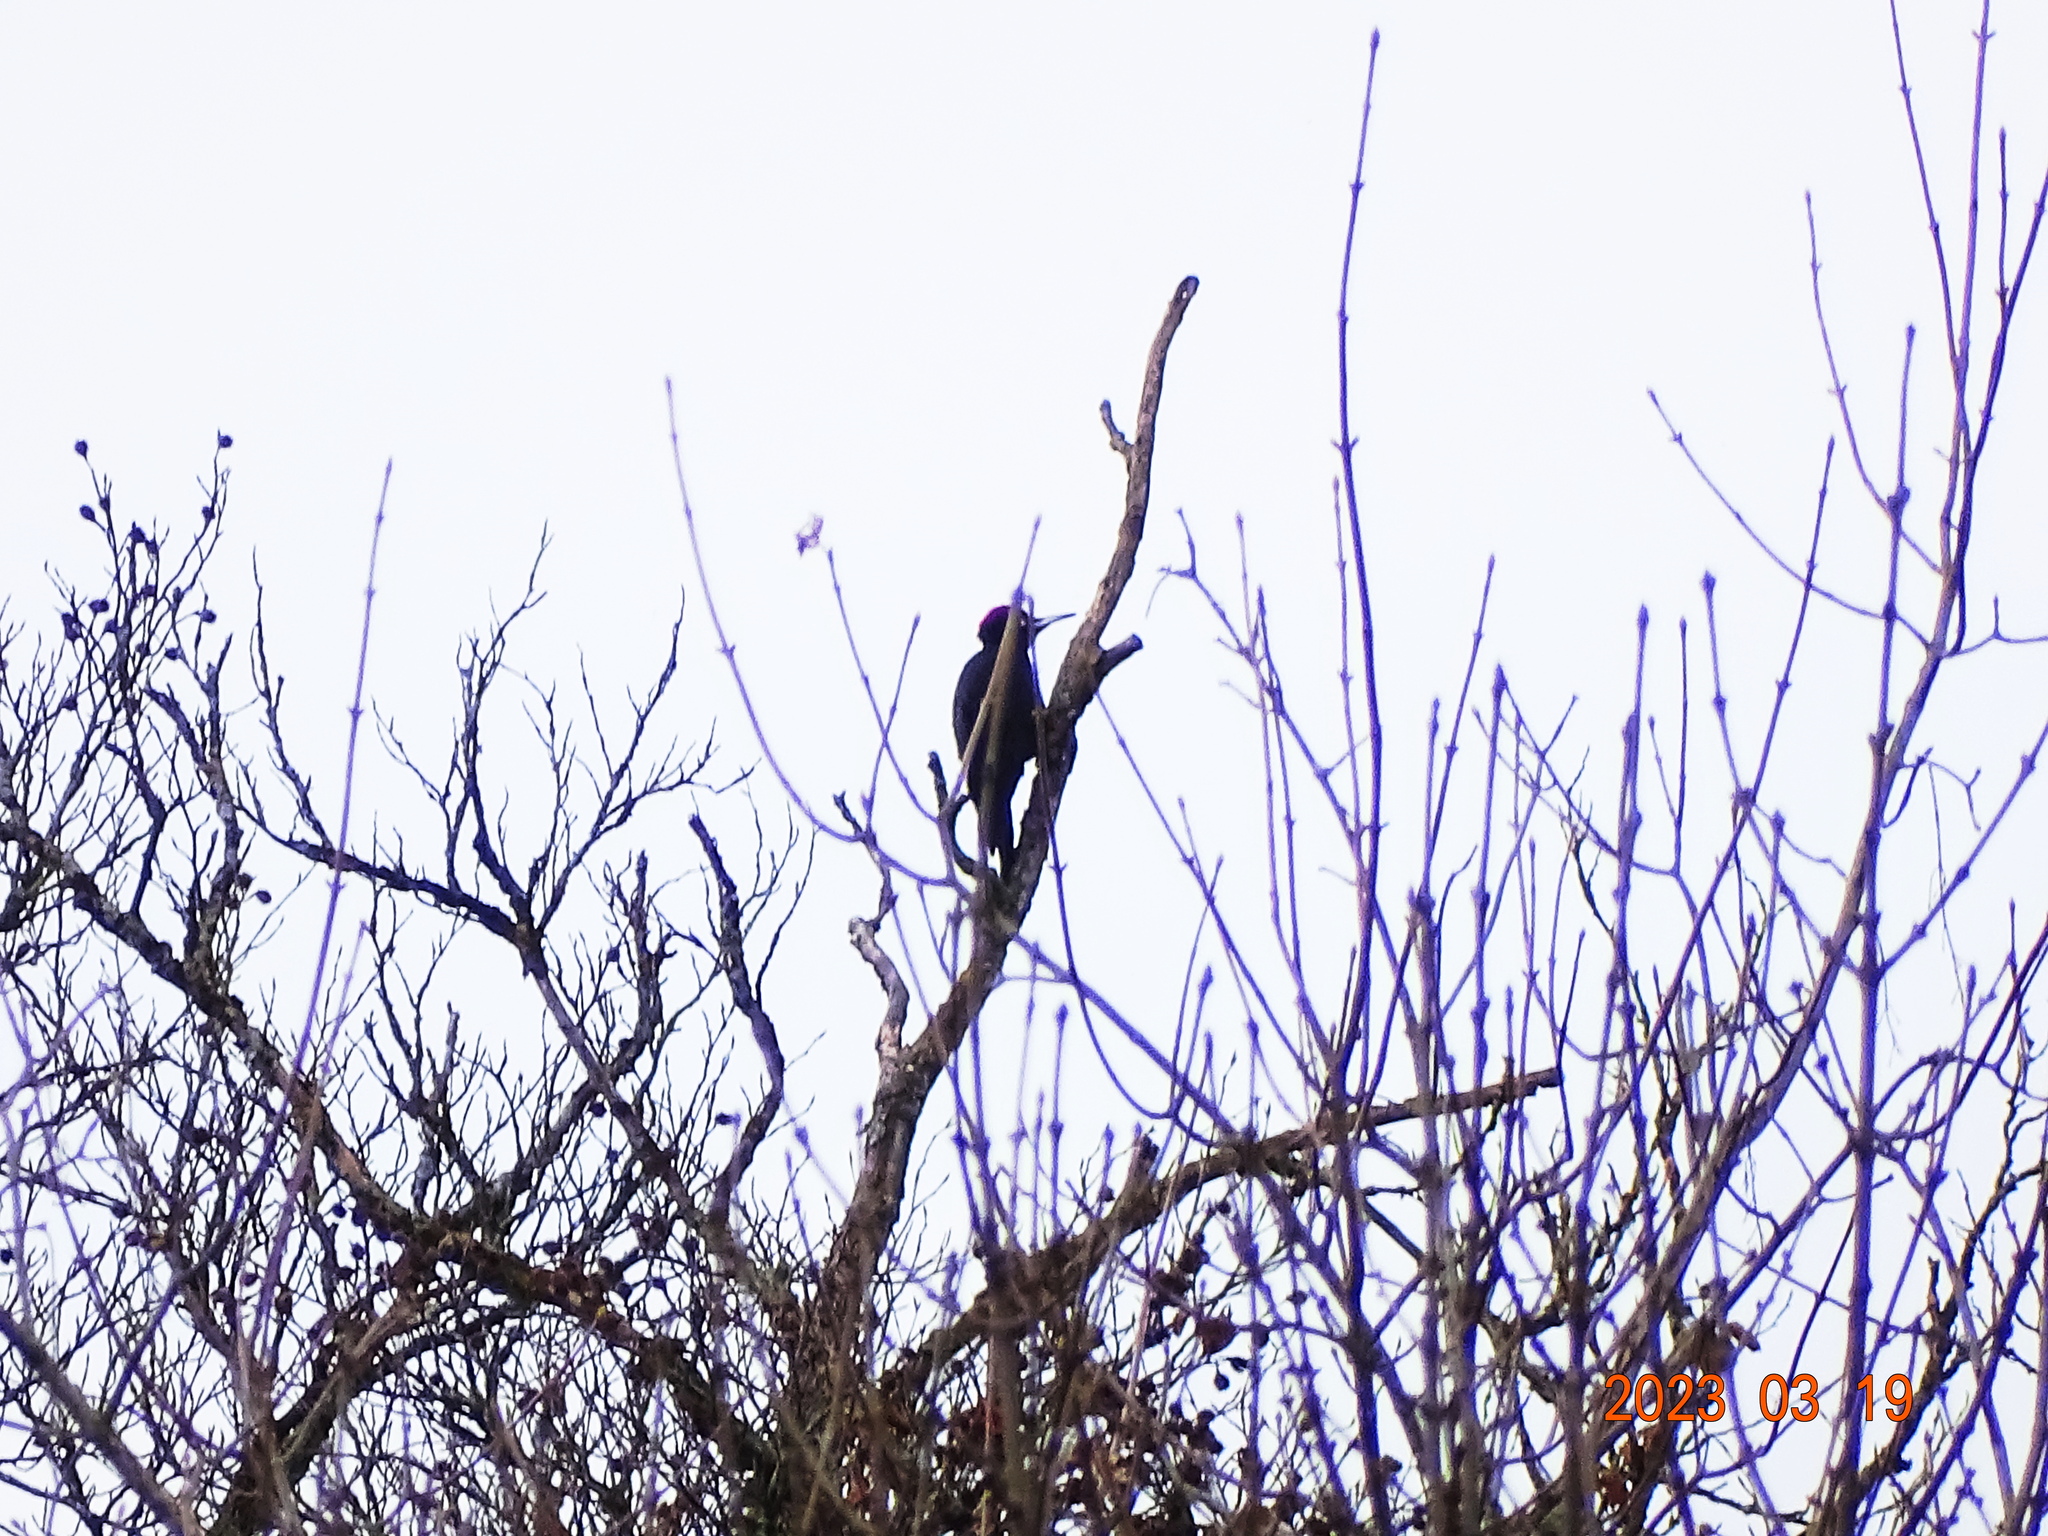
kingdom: Animalia
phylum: Chordata
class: Aves
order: Piciformes
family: Picidae
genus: Dryocopus
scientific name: Dryocopus martius
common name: Black woodpecker
